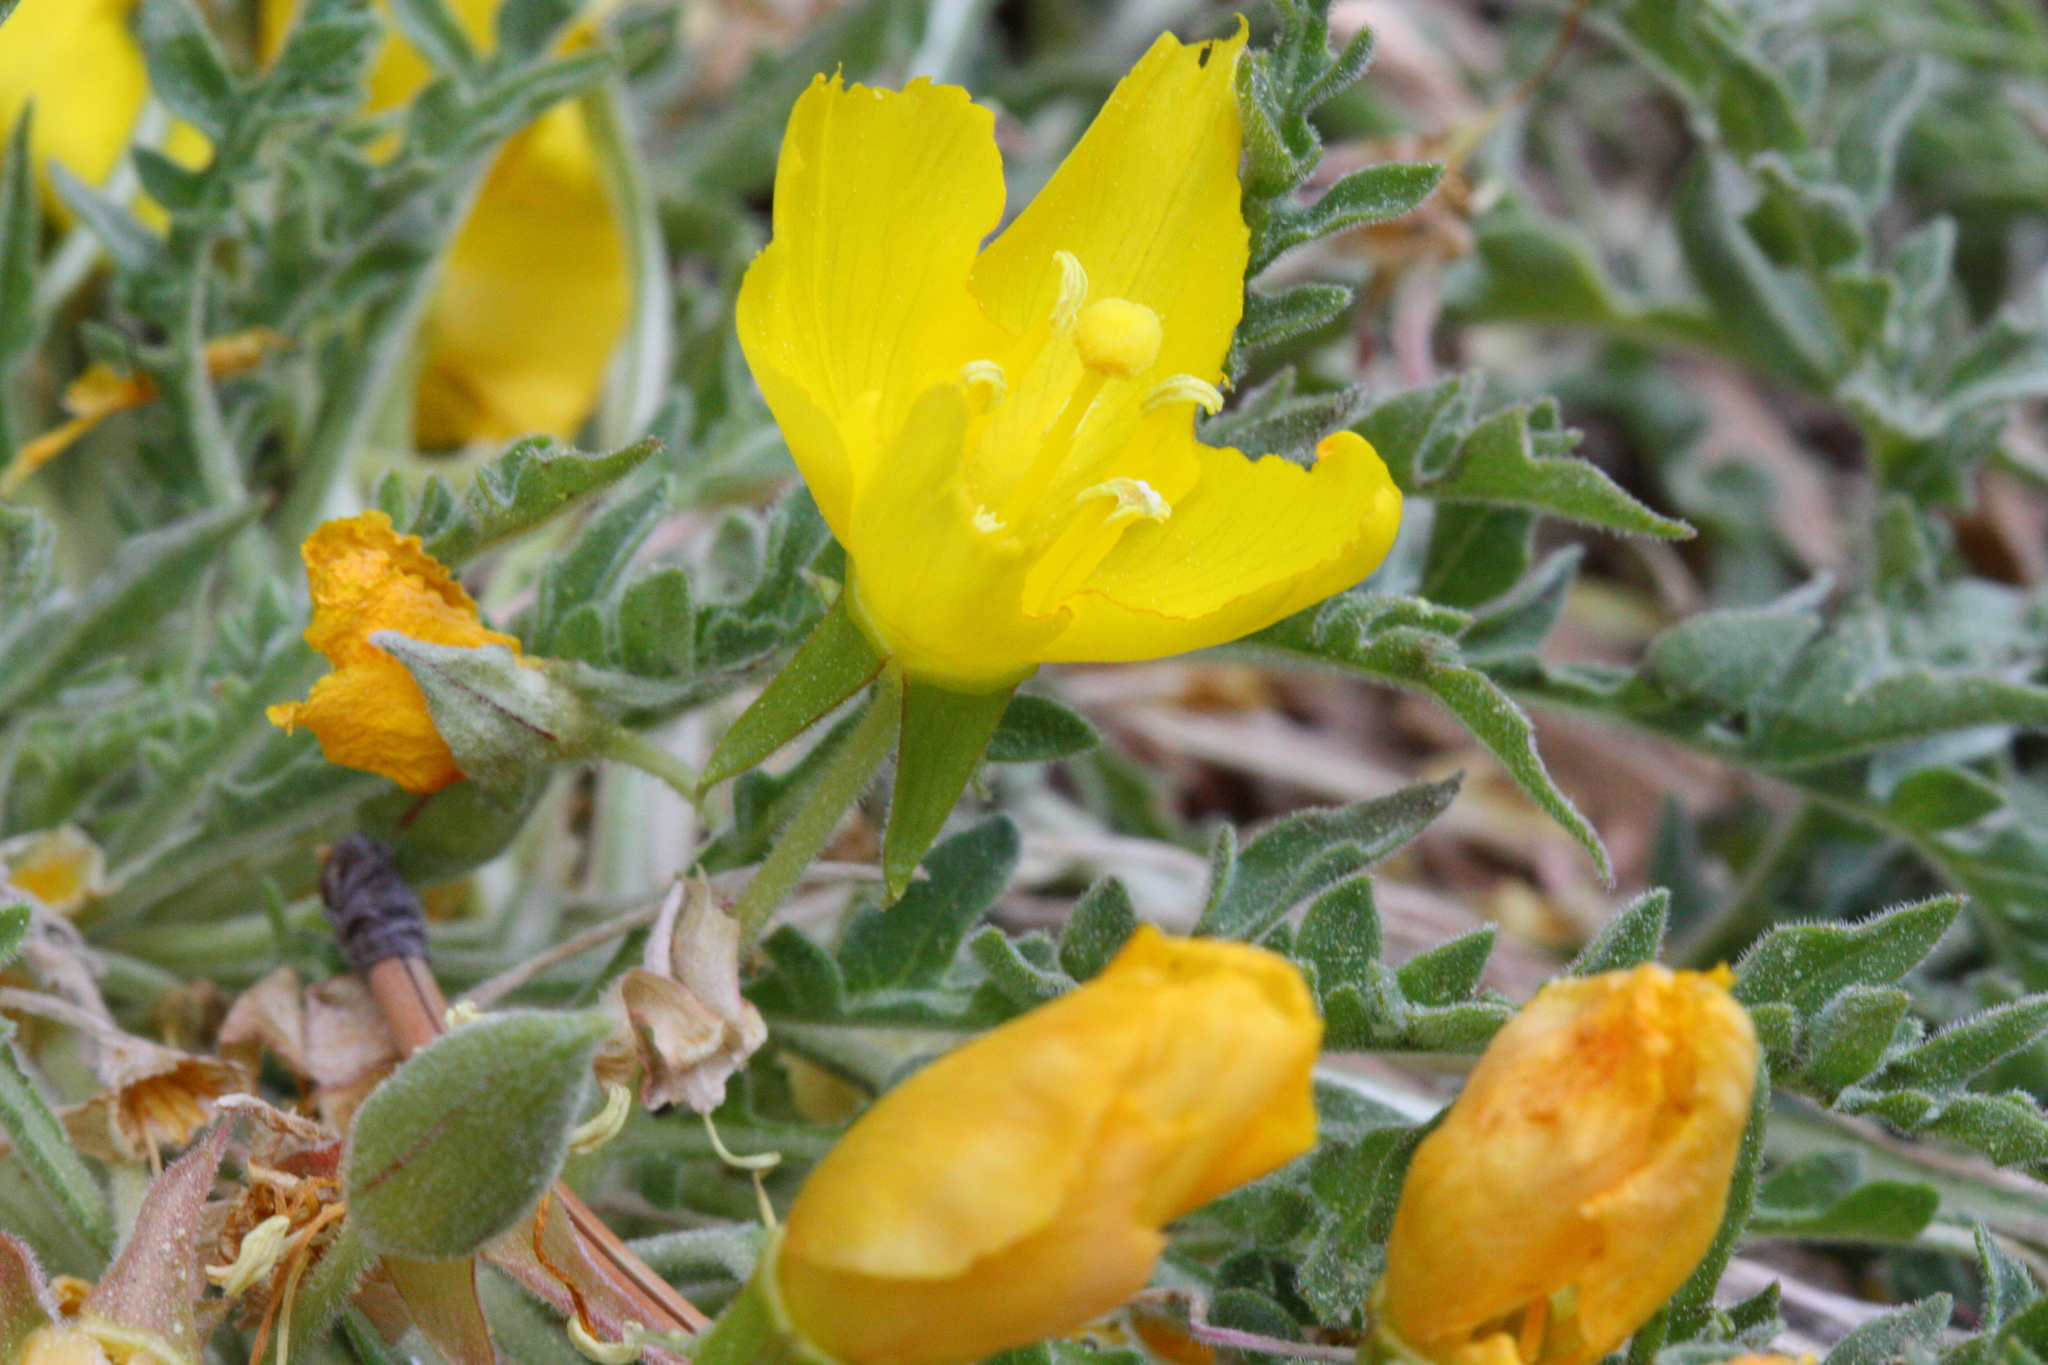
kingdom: Plantae
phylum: Tracheophyta
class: Magnoliopsida
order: Myrtales
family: Onagraceae
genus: Taraxia
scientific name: Taraxia tanacetifolia
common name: Tansyleaf evening primrose
